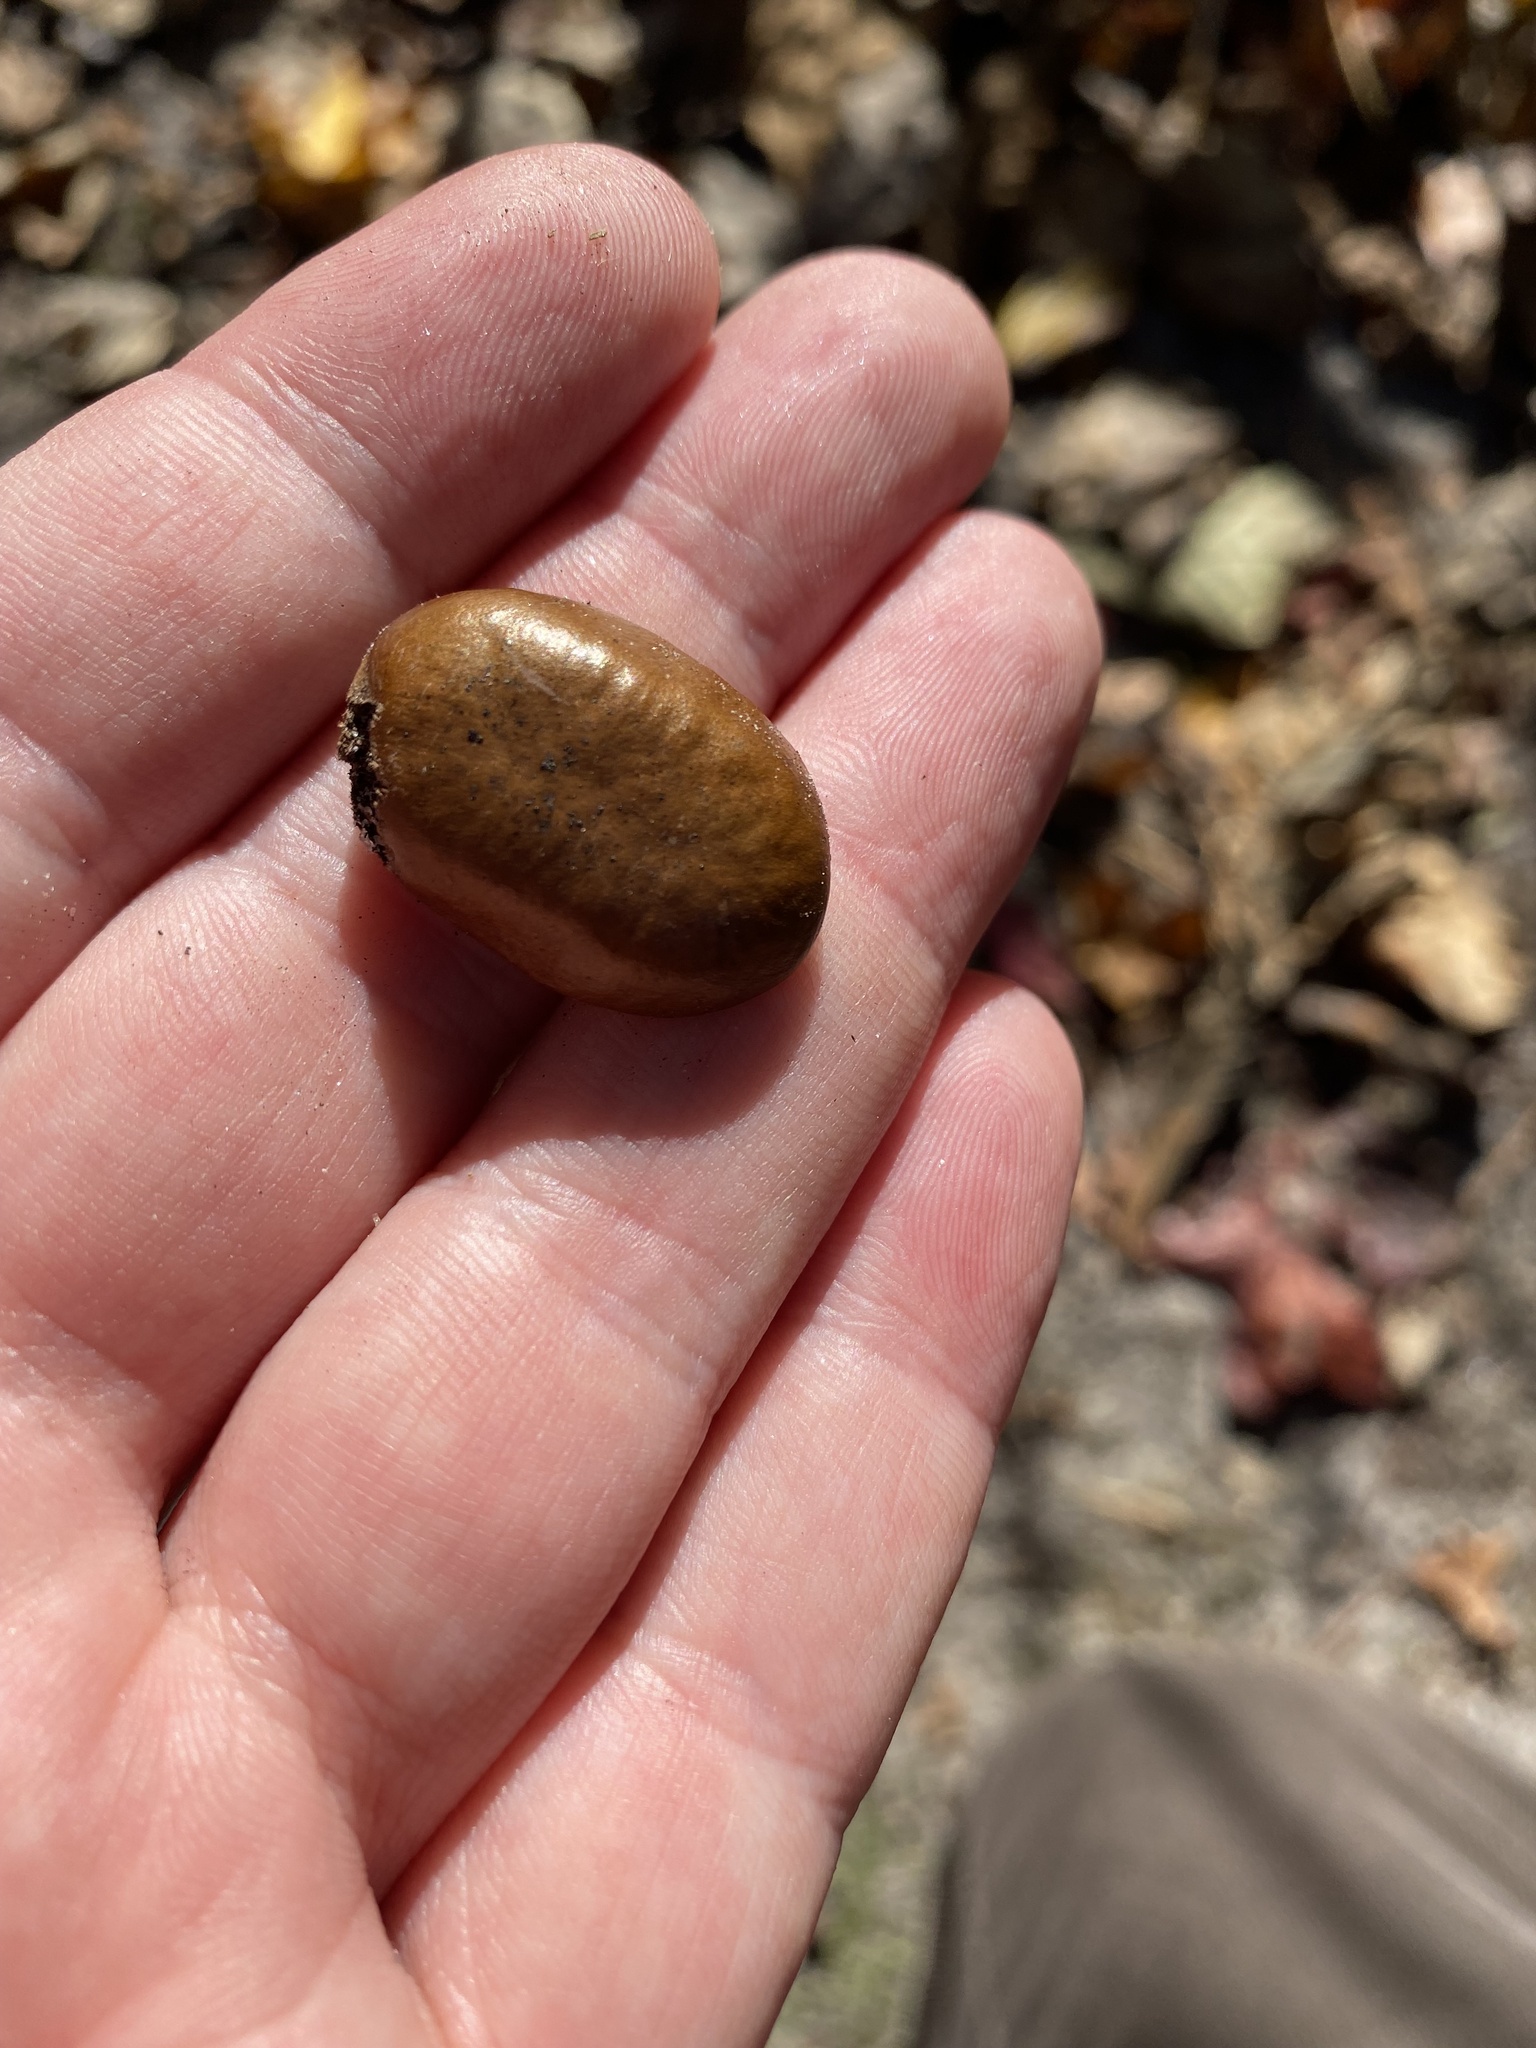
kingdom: Plantae
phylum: Tracheophyta
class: Magnoliopsida
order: Magnoliales
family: Annonaceae
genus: Asimina
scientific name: Asimina triloba
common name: Dog-banana
